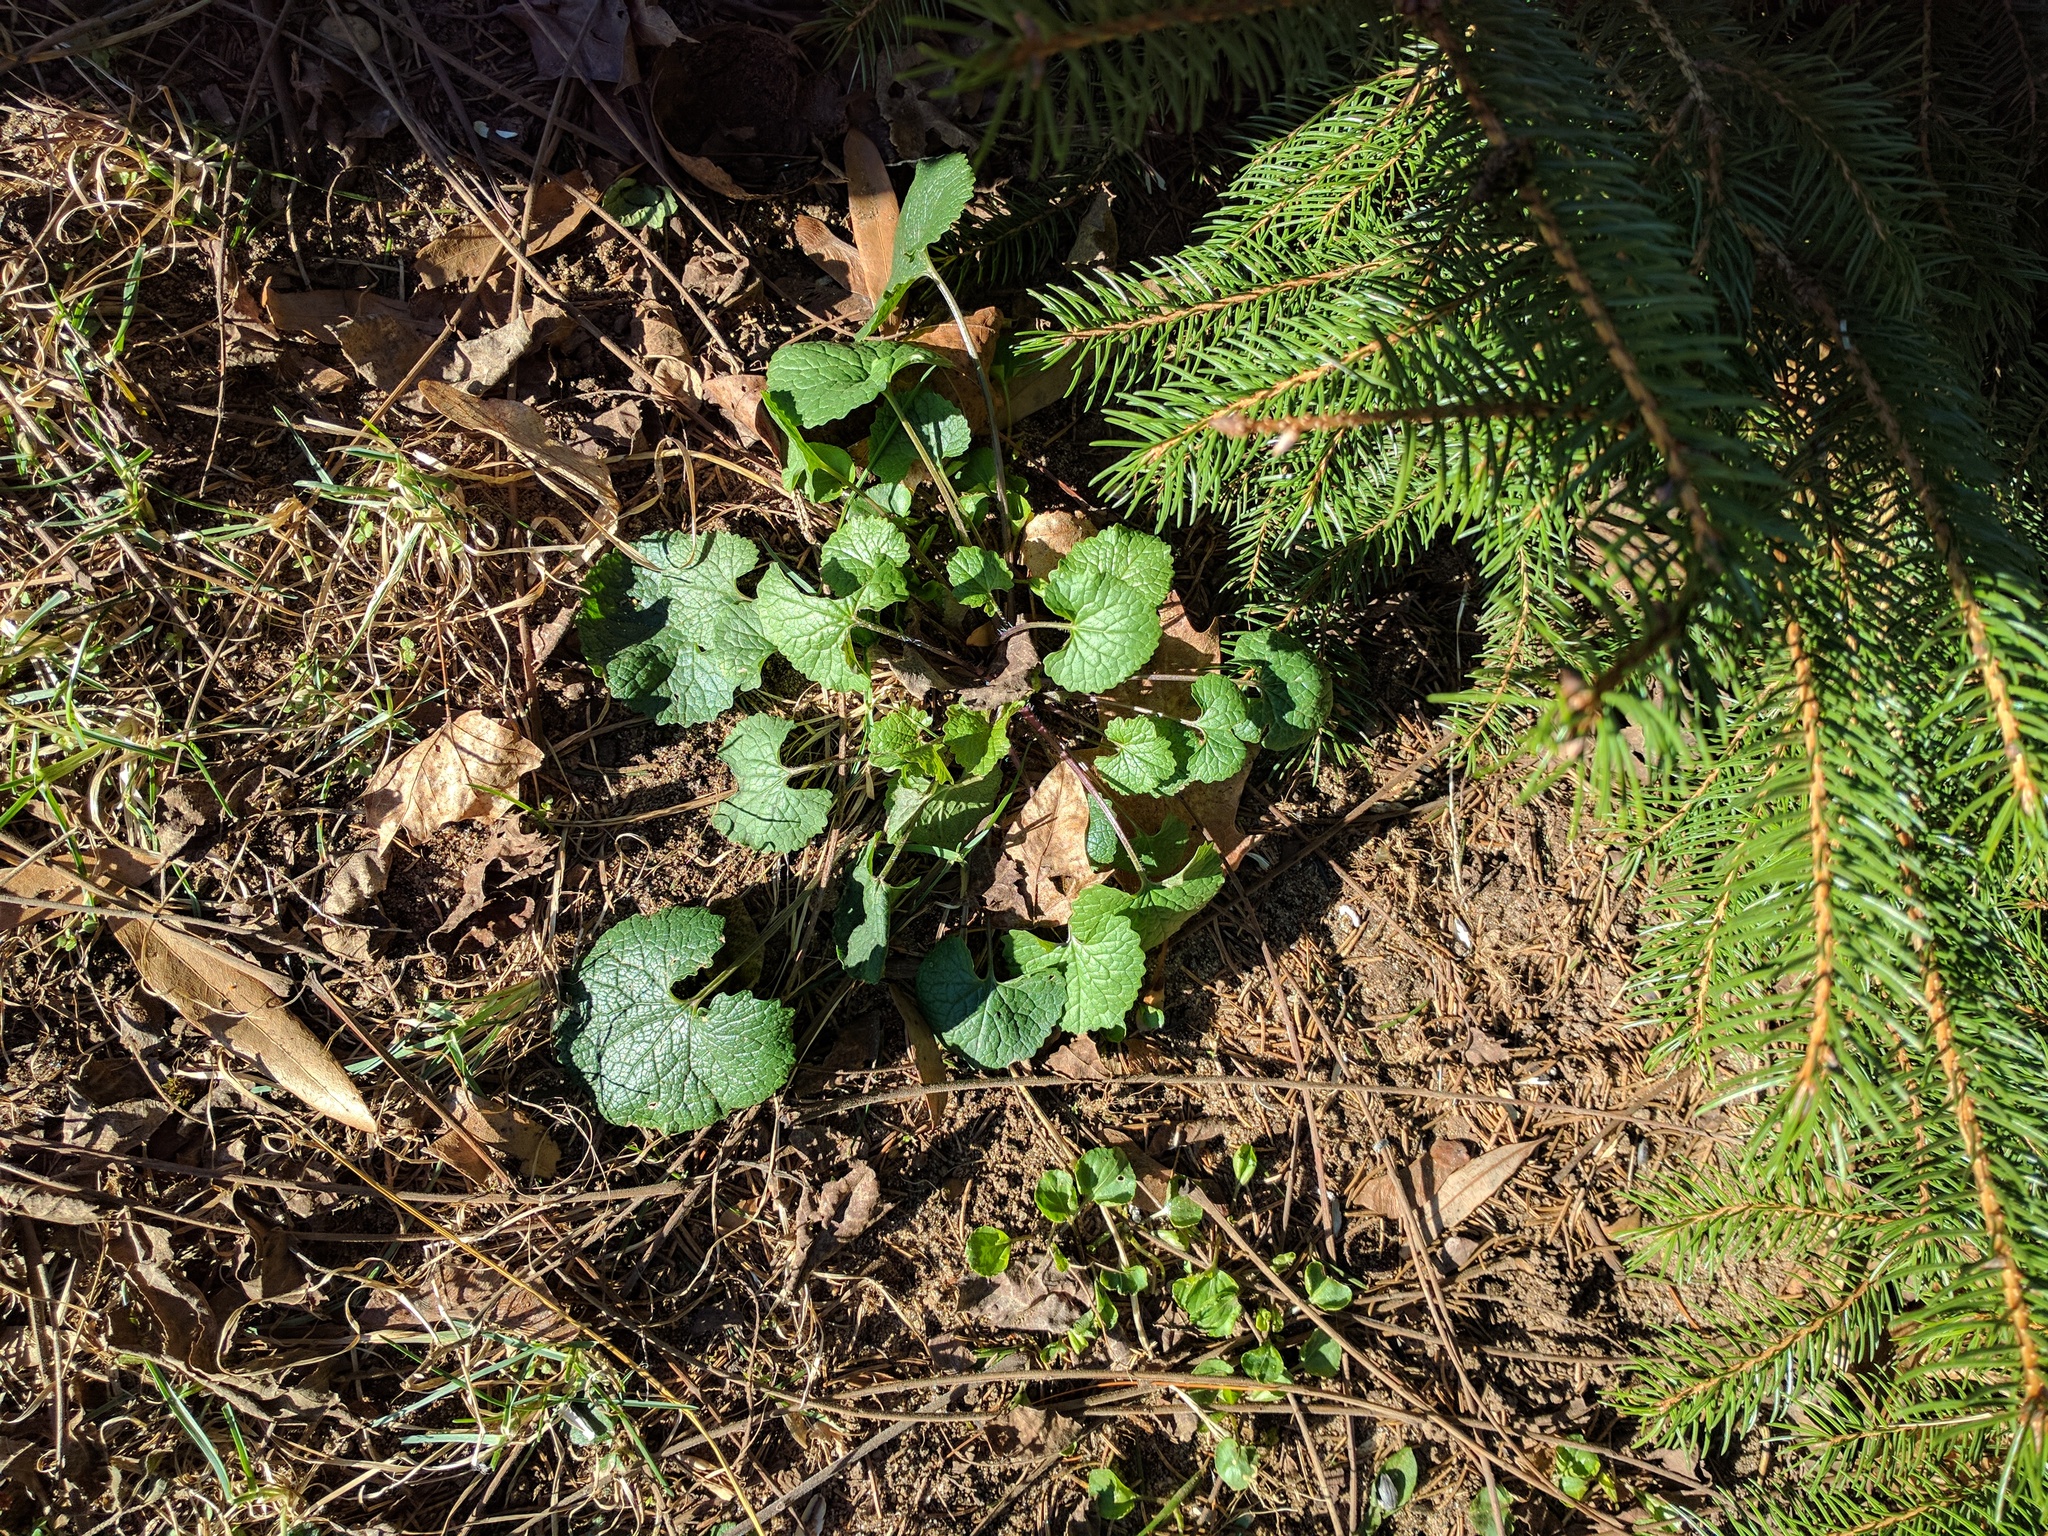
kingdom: Plantae
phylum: Tracheophyta
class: Magnoliopsida
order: Brassicales
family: Brassicaceae
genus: Alliaria
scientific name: Alliaria petiolata
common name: Garlic mustard
